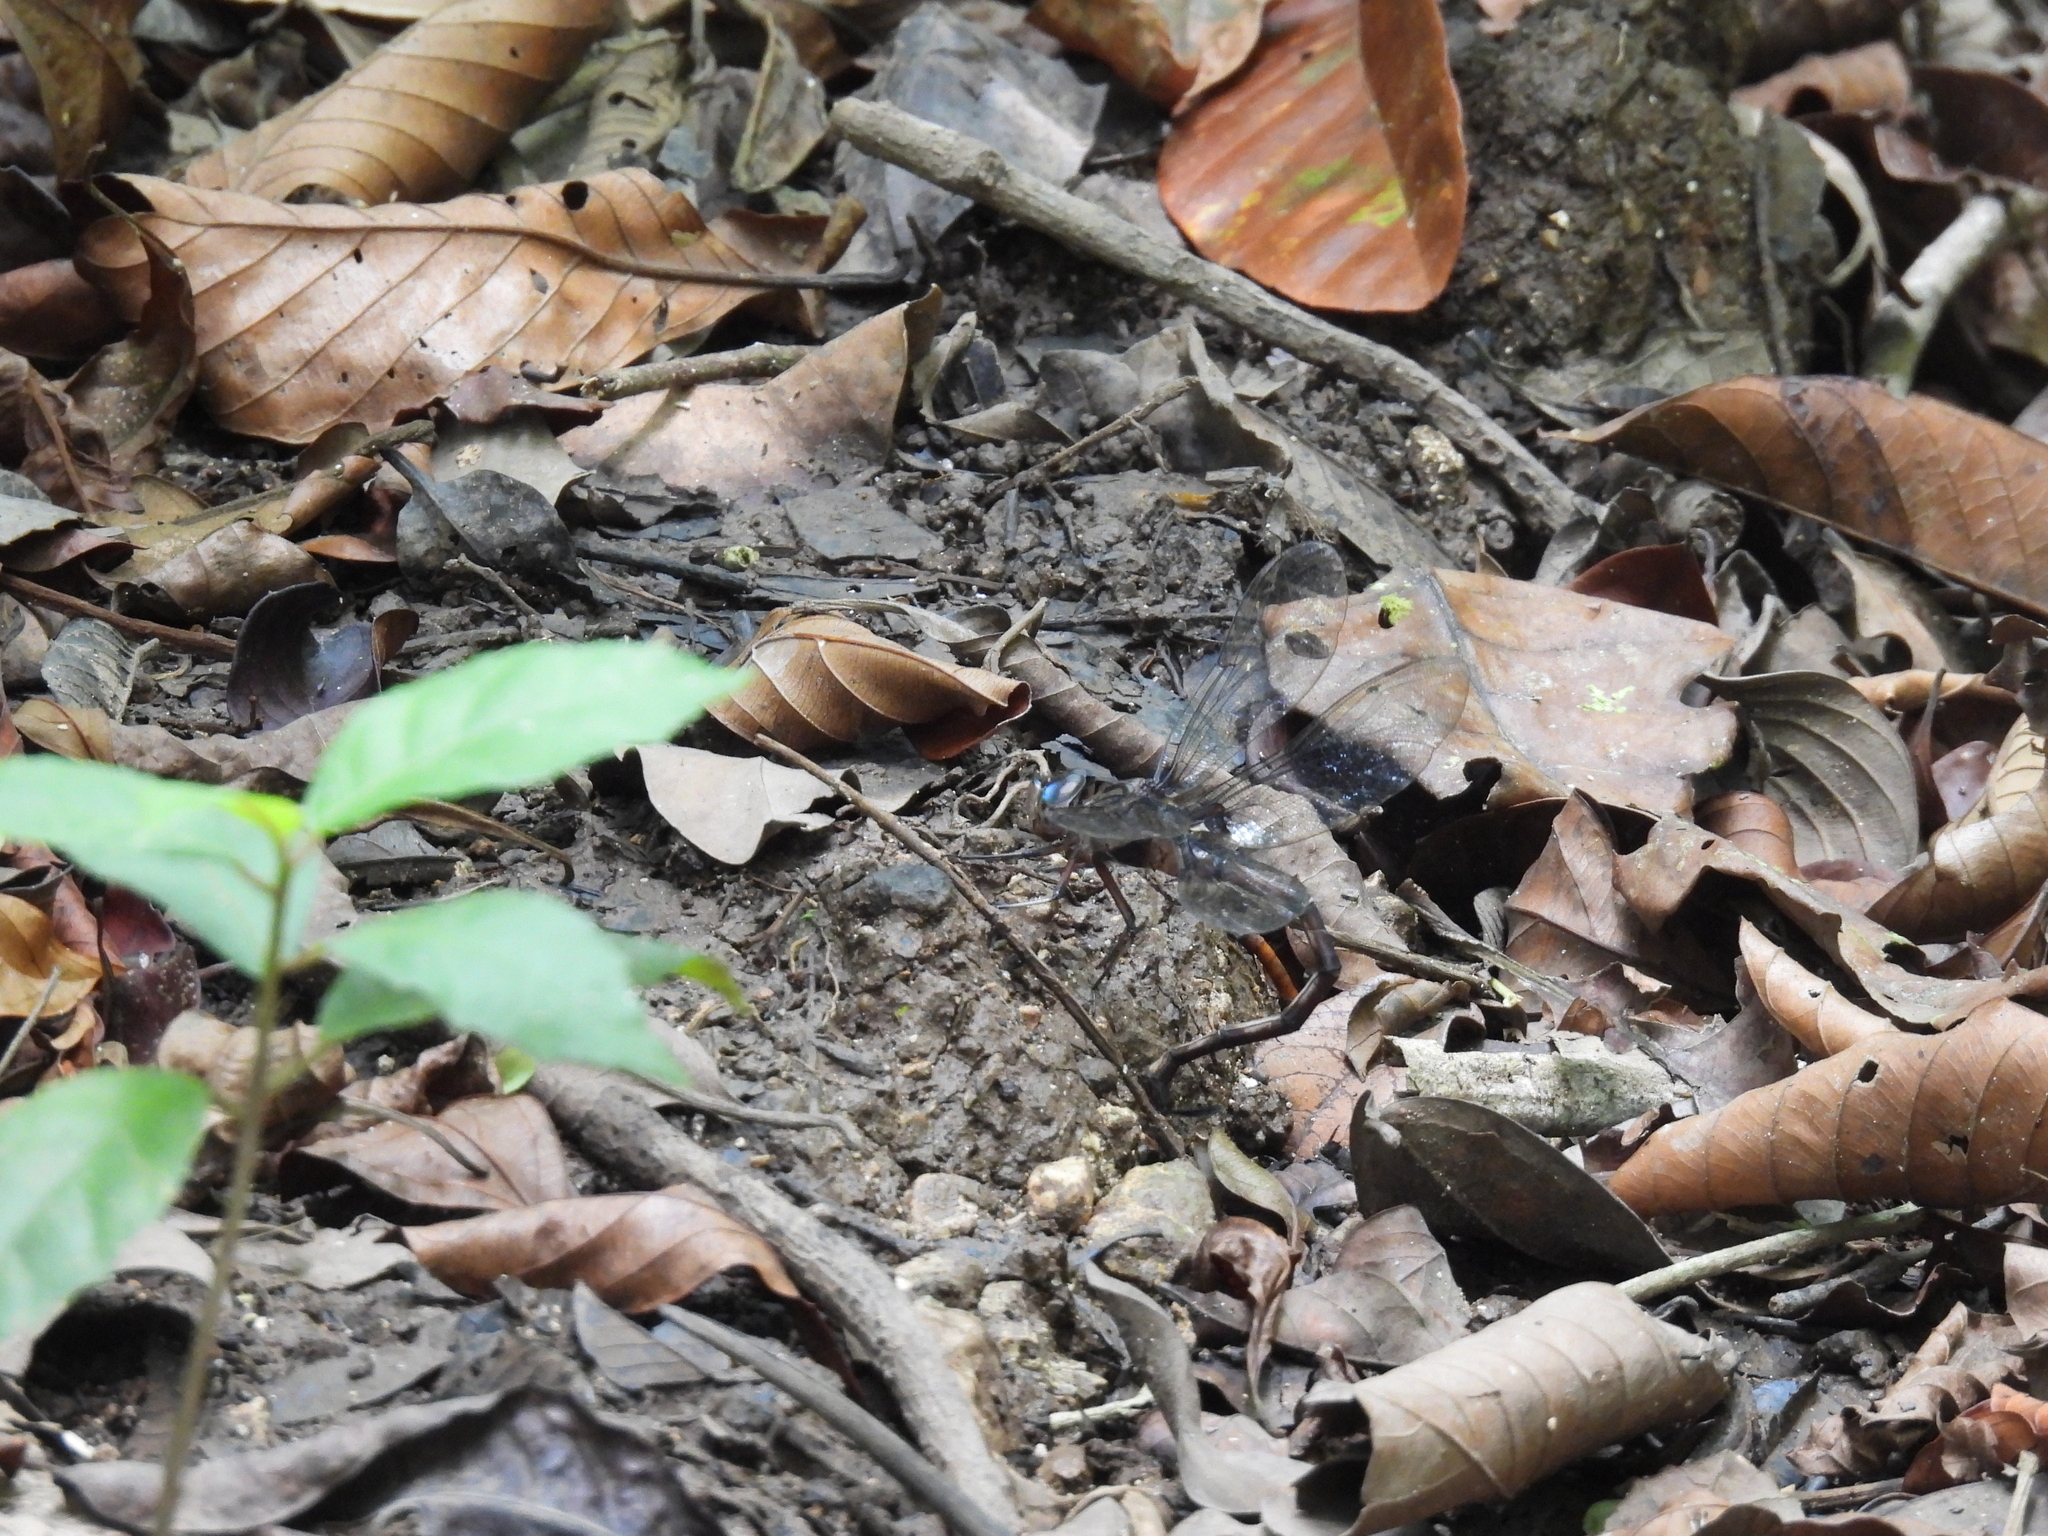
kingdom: Animalia
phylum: Arthropoda
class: Insecta
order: Odonata
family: Aeshnidae
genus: Gynacantha
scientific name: Gynacantha membranalis
